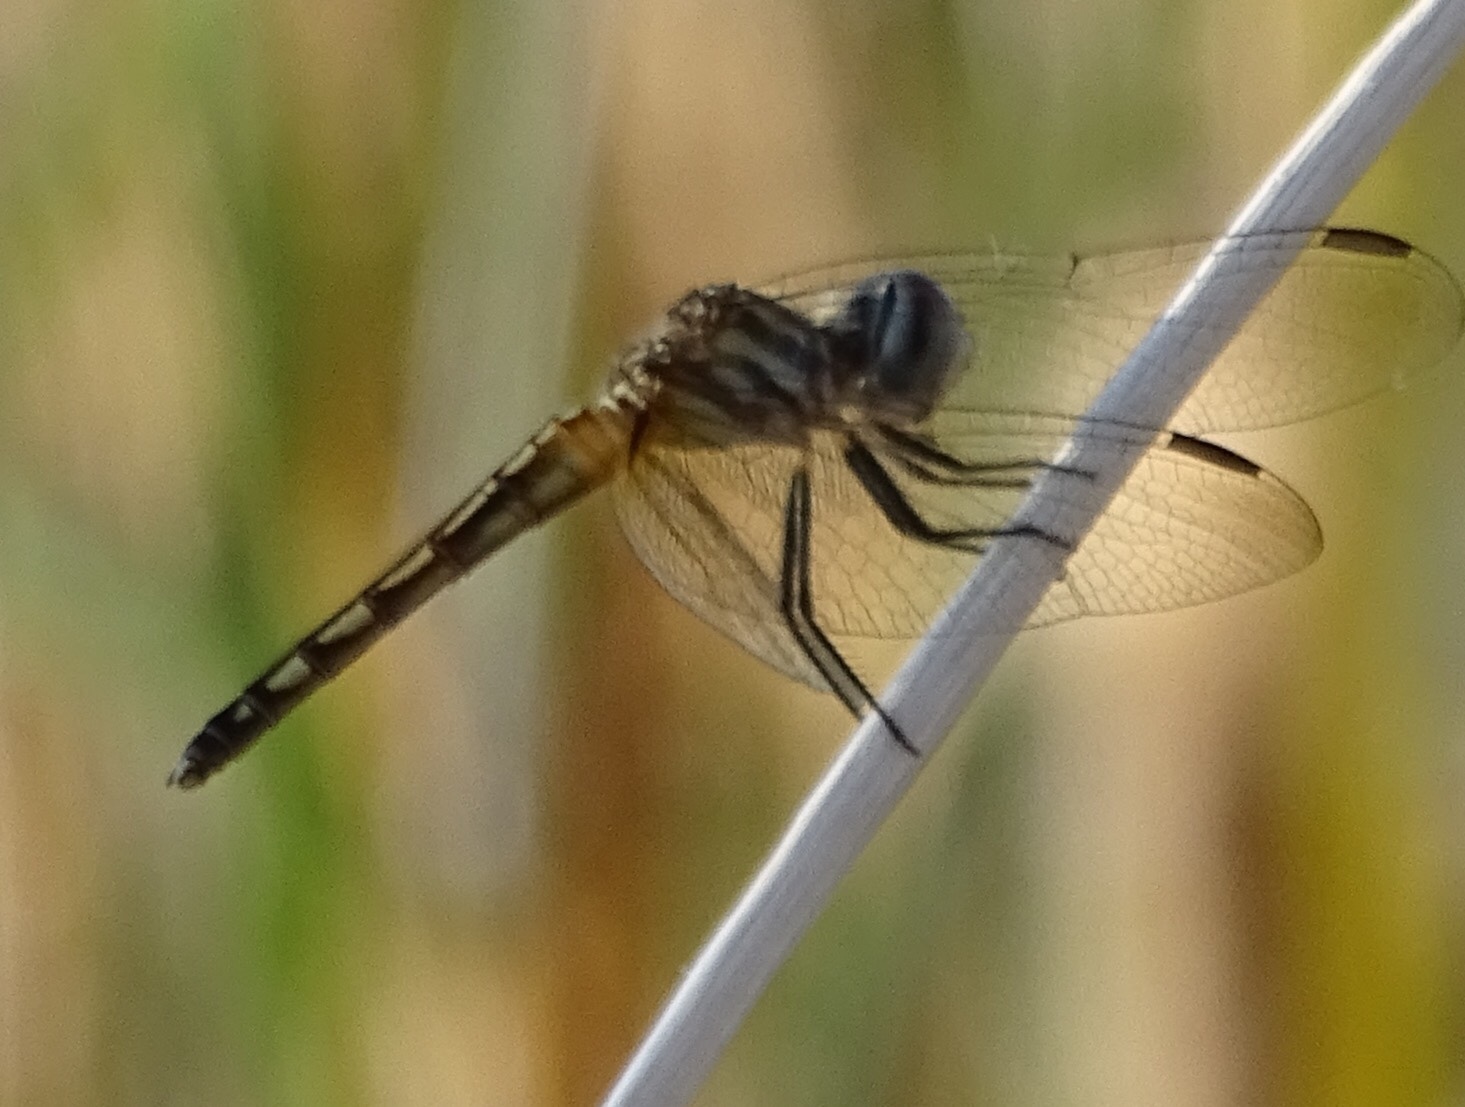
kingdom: Animalia
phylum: Arthropoda
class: Insecta
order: Odonata
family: Libellulidae
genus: Pachydiplax
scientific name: Pachydiplax longipennis
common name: Blue dasher
